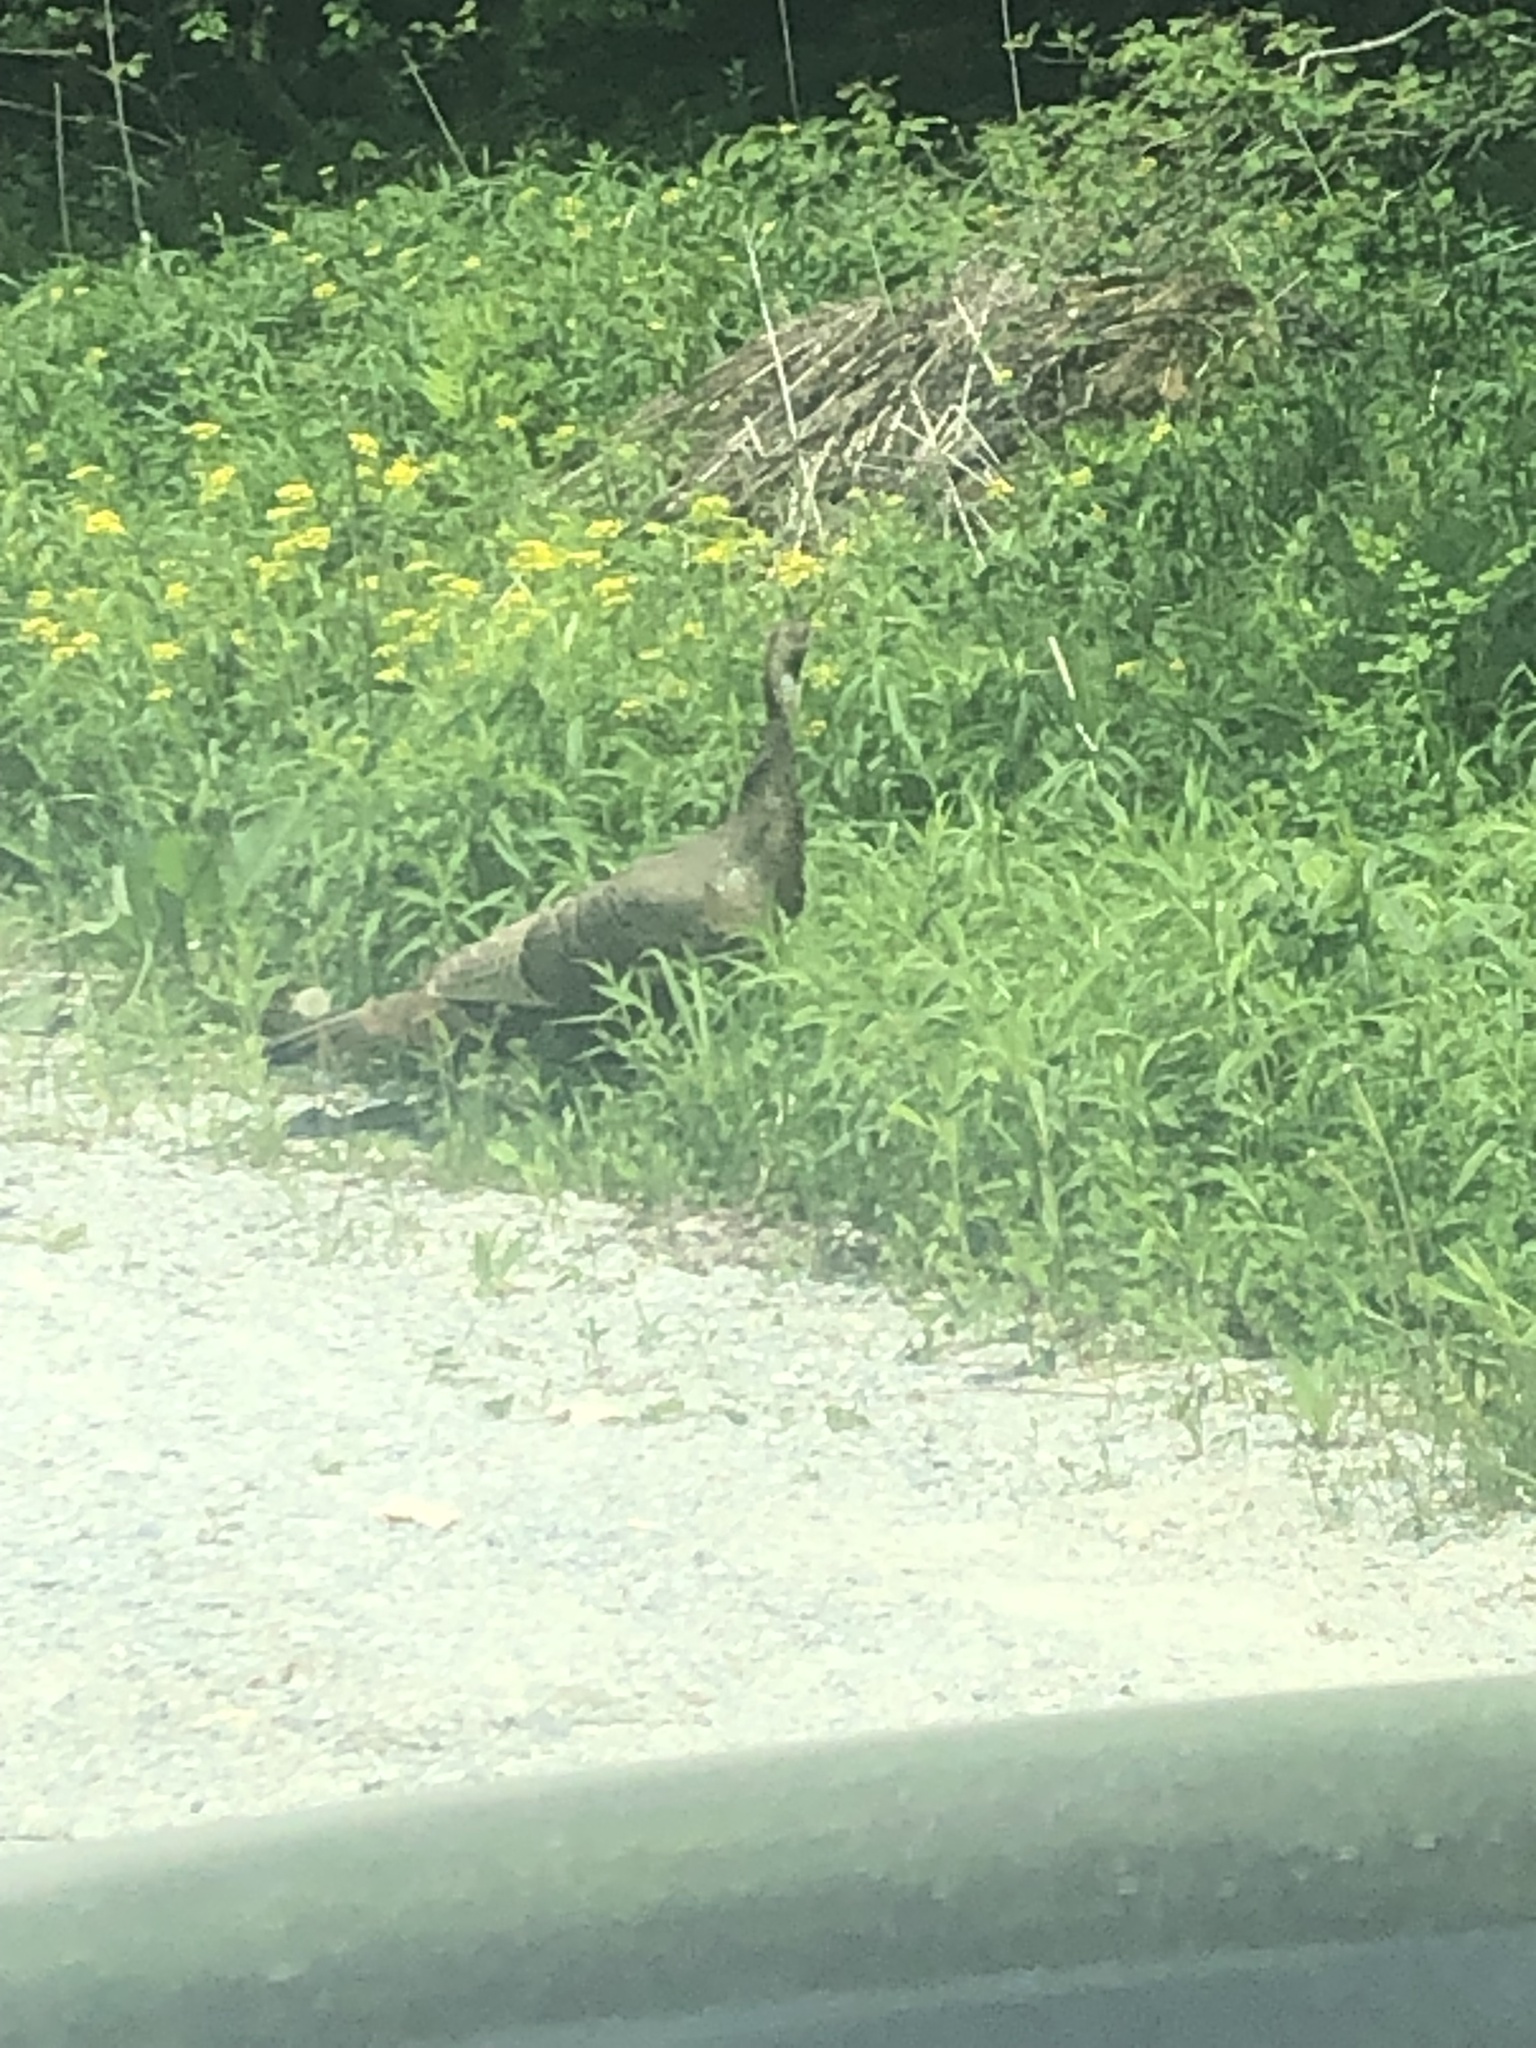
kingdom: Animalia
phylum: Chordata
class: Aves
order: Galliformes
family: Phasianidae
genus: Meleagris
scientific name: Meleagris gallopavo
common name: Wild turkey
